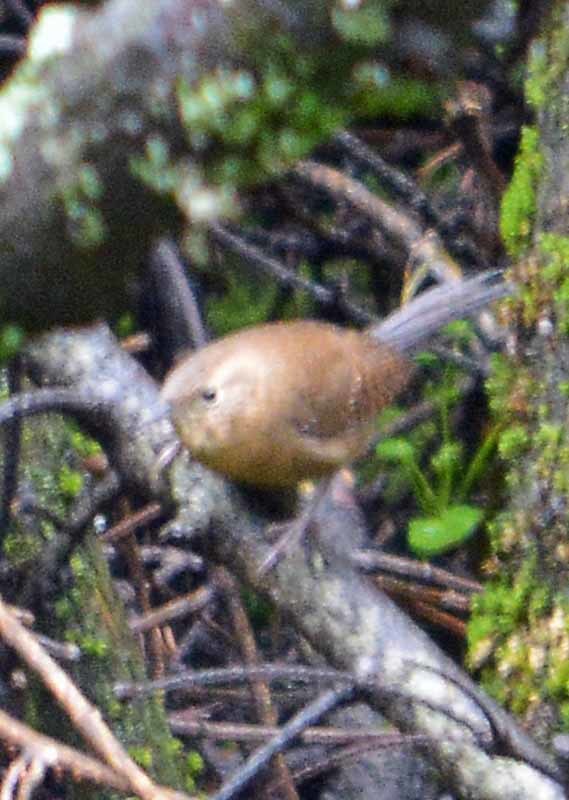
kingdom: Animalia
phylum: Chordata
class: Aves
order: Passeriformes
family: Troglodytidae
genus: Troglodytes
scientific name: Troglodytes aedon
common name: House wren
